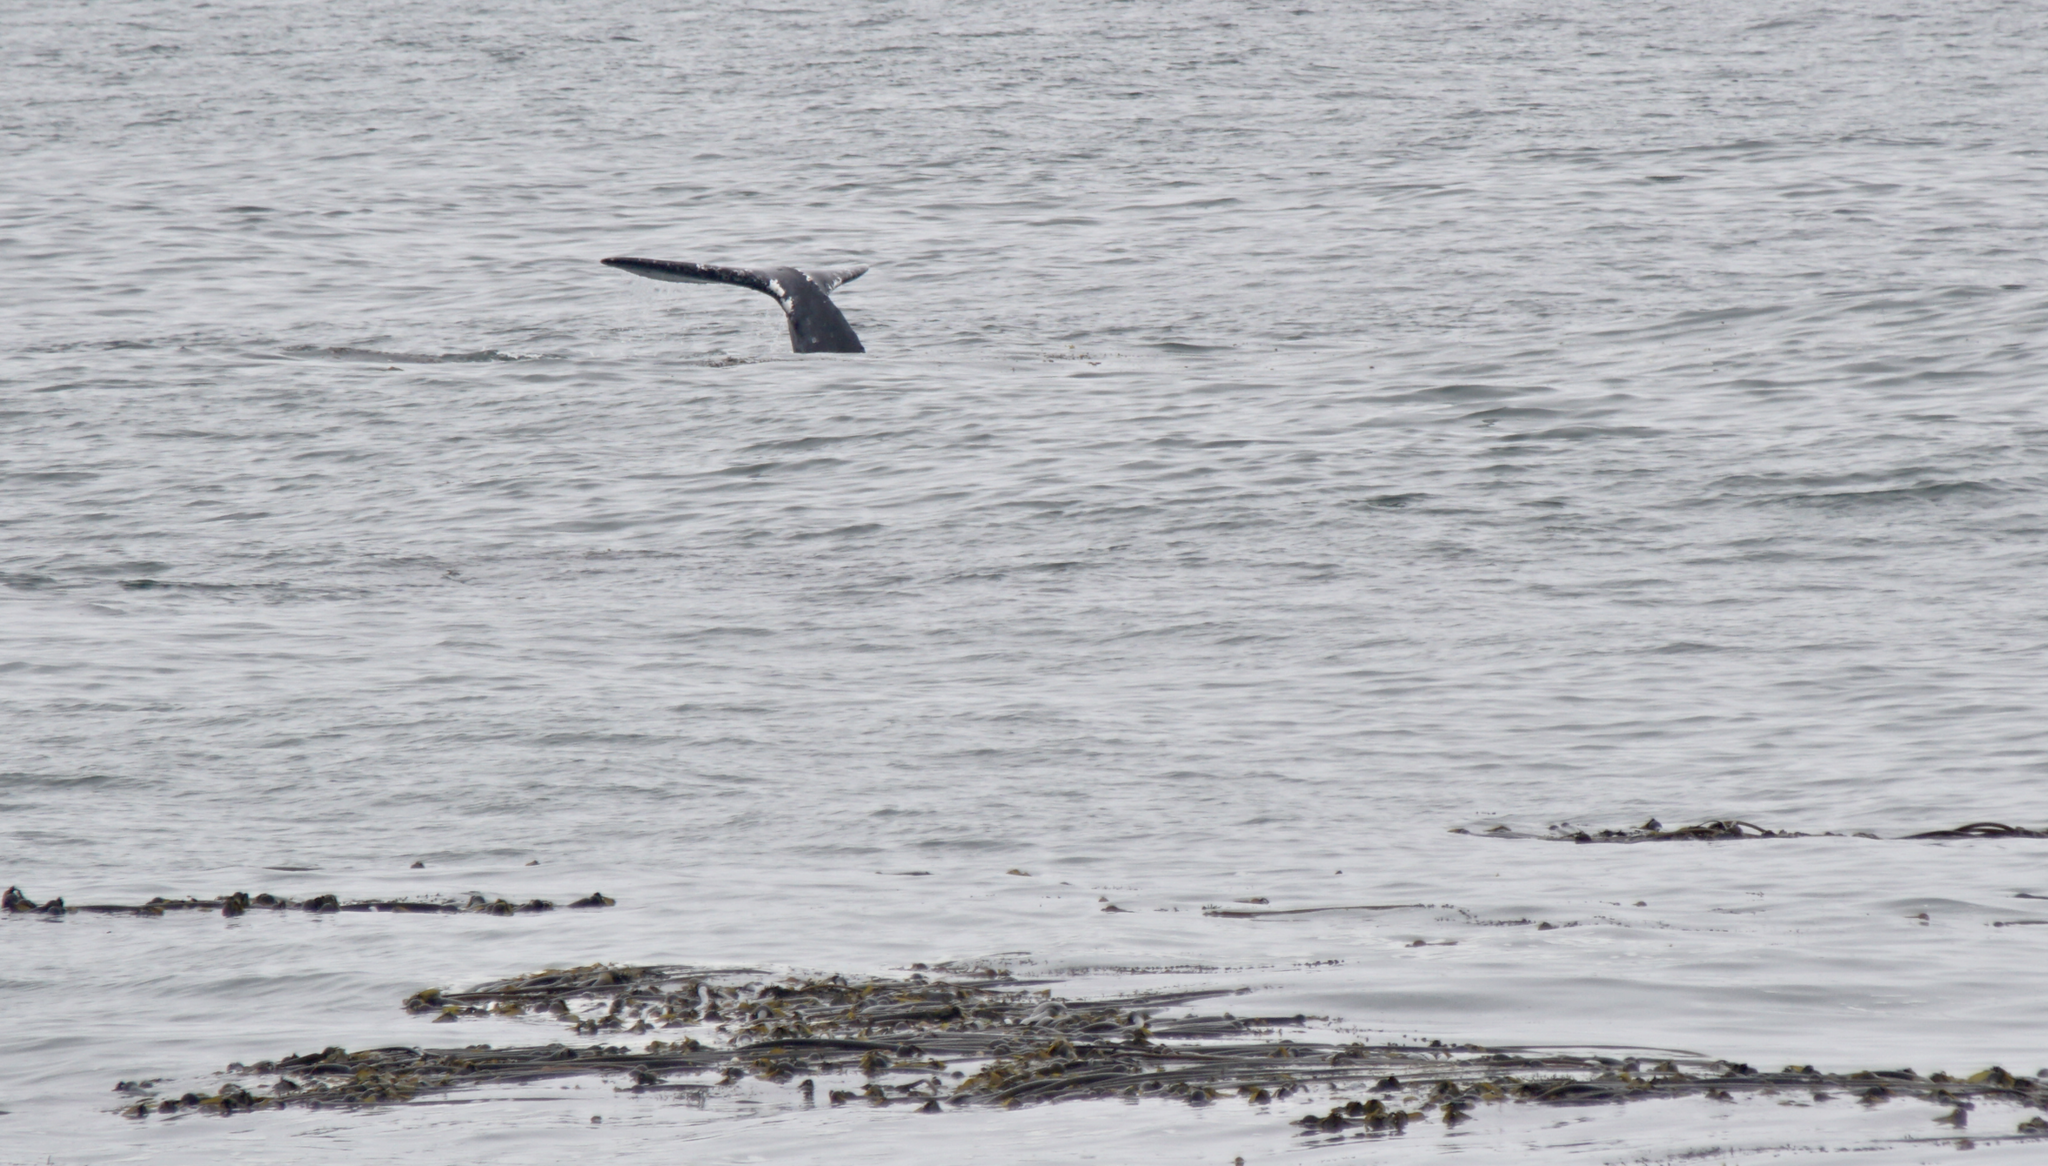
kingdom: Animalia
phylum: Chordata
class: Mammalia
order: Cetacea
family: Eschrichtiidae
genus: Eschrichtius
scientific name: Eschrichtius robustus
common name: Gray whale
